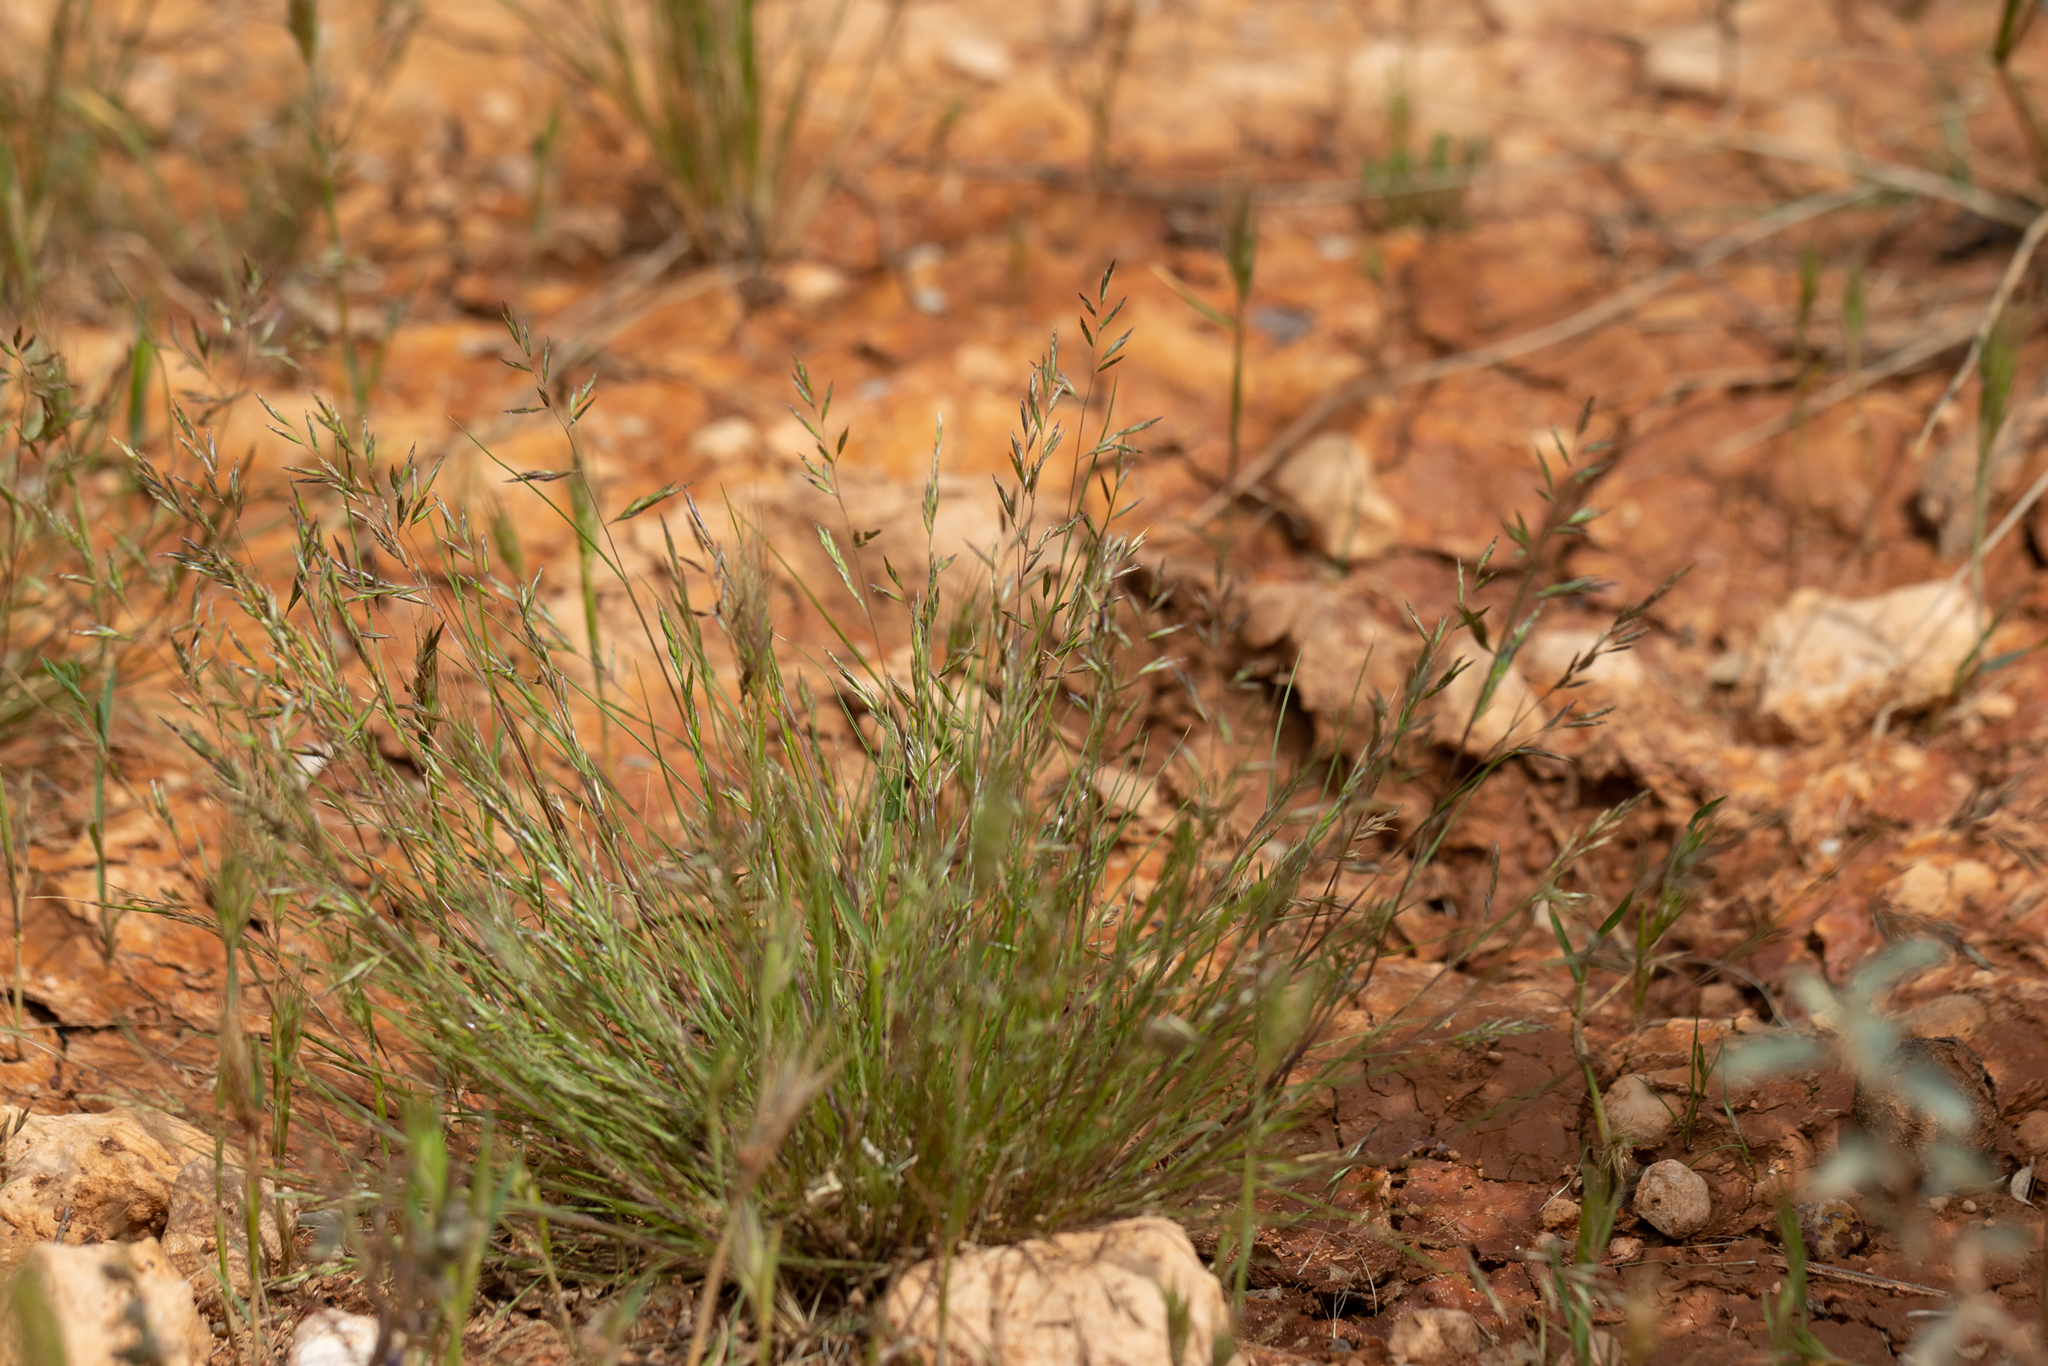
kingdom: Plantae
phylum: Tracheophyta
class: Liliopsida
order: Poales
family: Poaceae
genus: Schismus
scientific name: Schismus barbatus
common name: Kelch-grass
